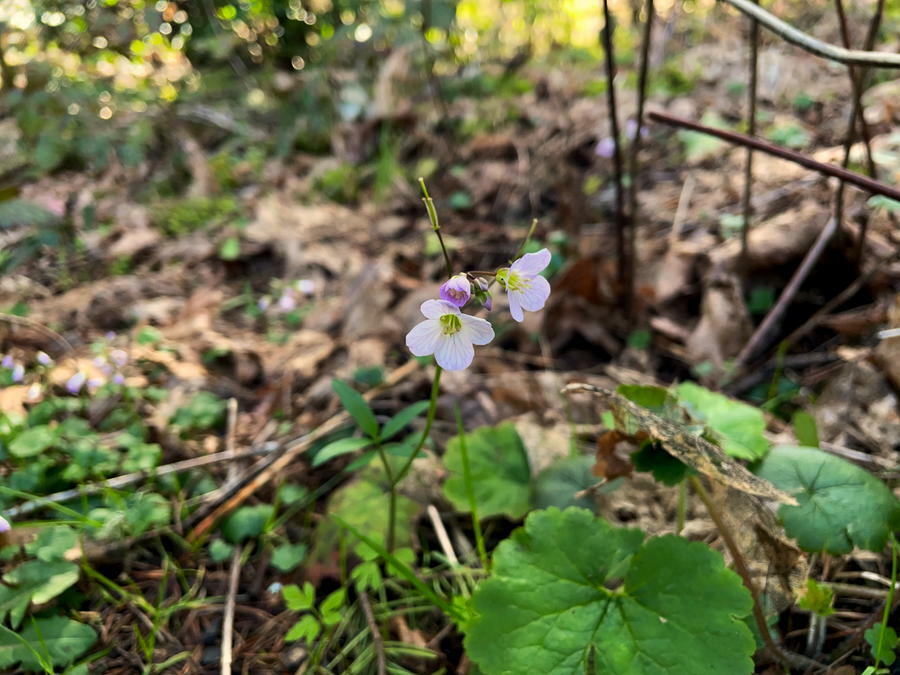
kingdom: Plantae
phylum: Tracheophyta
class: Magnoliopsida
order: Brassicales
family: Brassicaceae
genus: Cardamine
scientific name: Cardamine nuttallii
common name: Nuttall's toothwort
